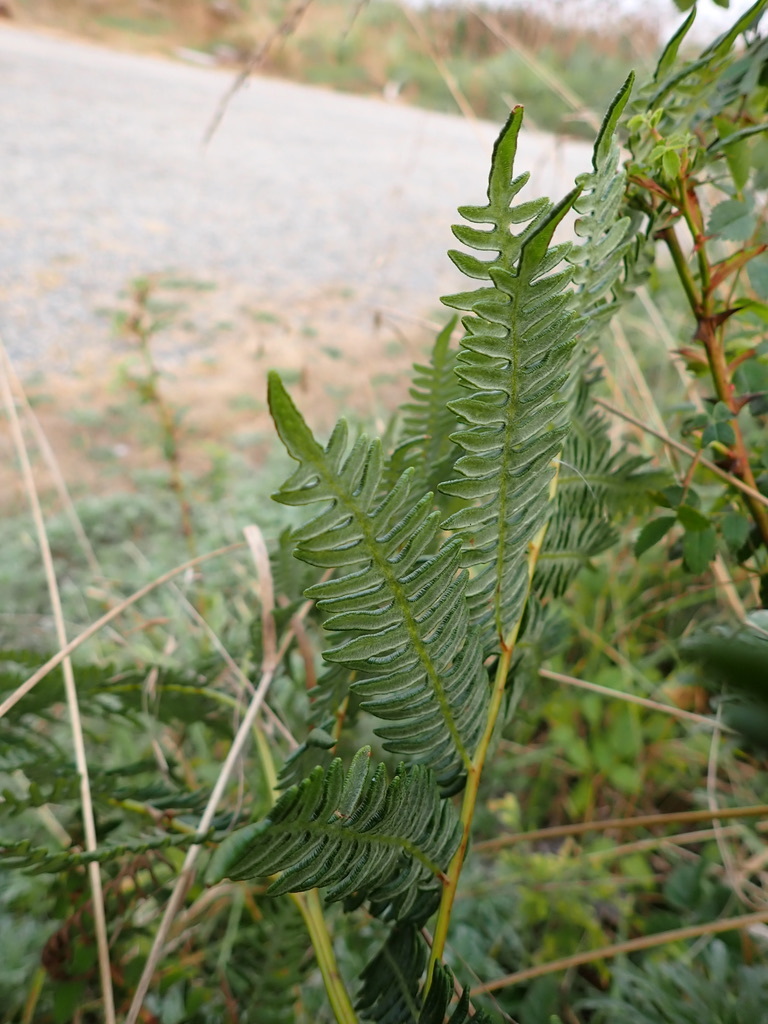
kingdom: Plantae
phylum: Tracheophyta
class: Polypodiopsida
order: Polypodiales
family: Dennstaedtiaceae
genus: Pteridium
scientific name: Pteridium aquilinum
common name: Bracken
